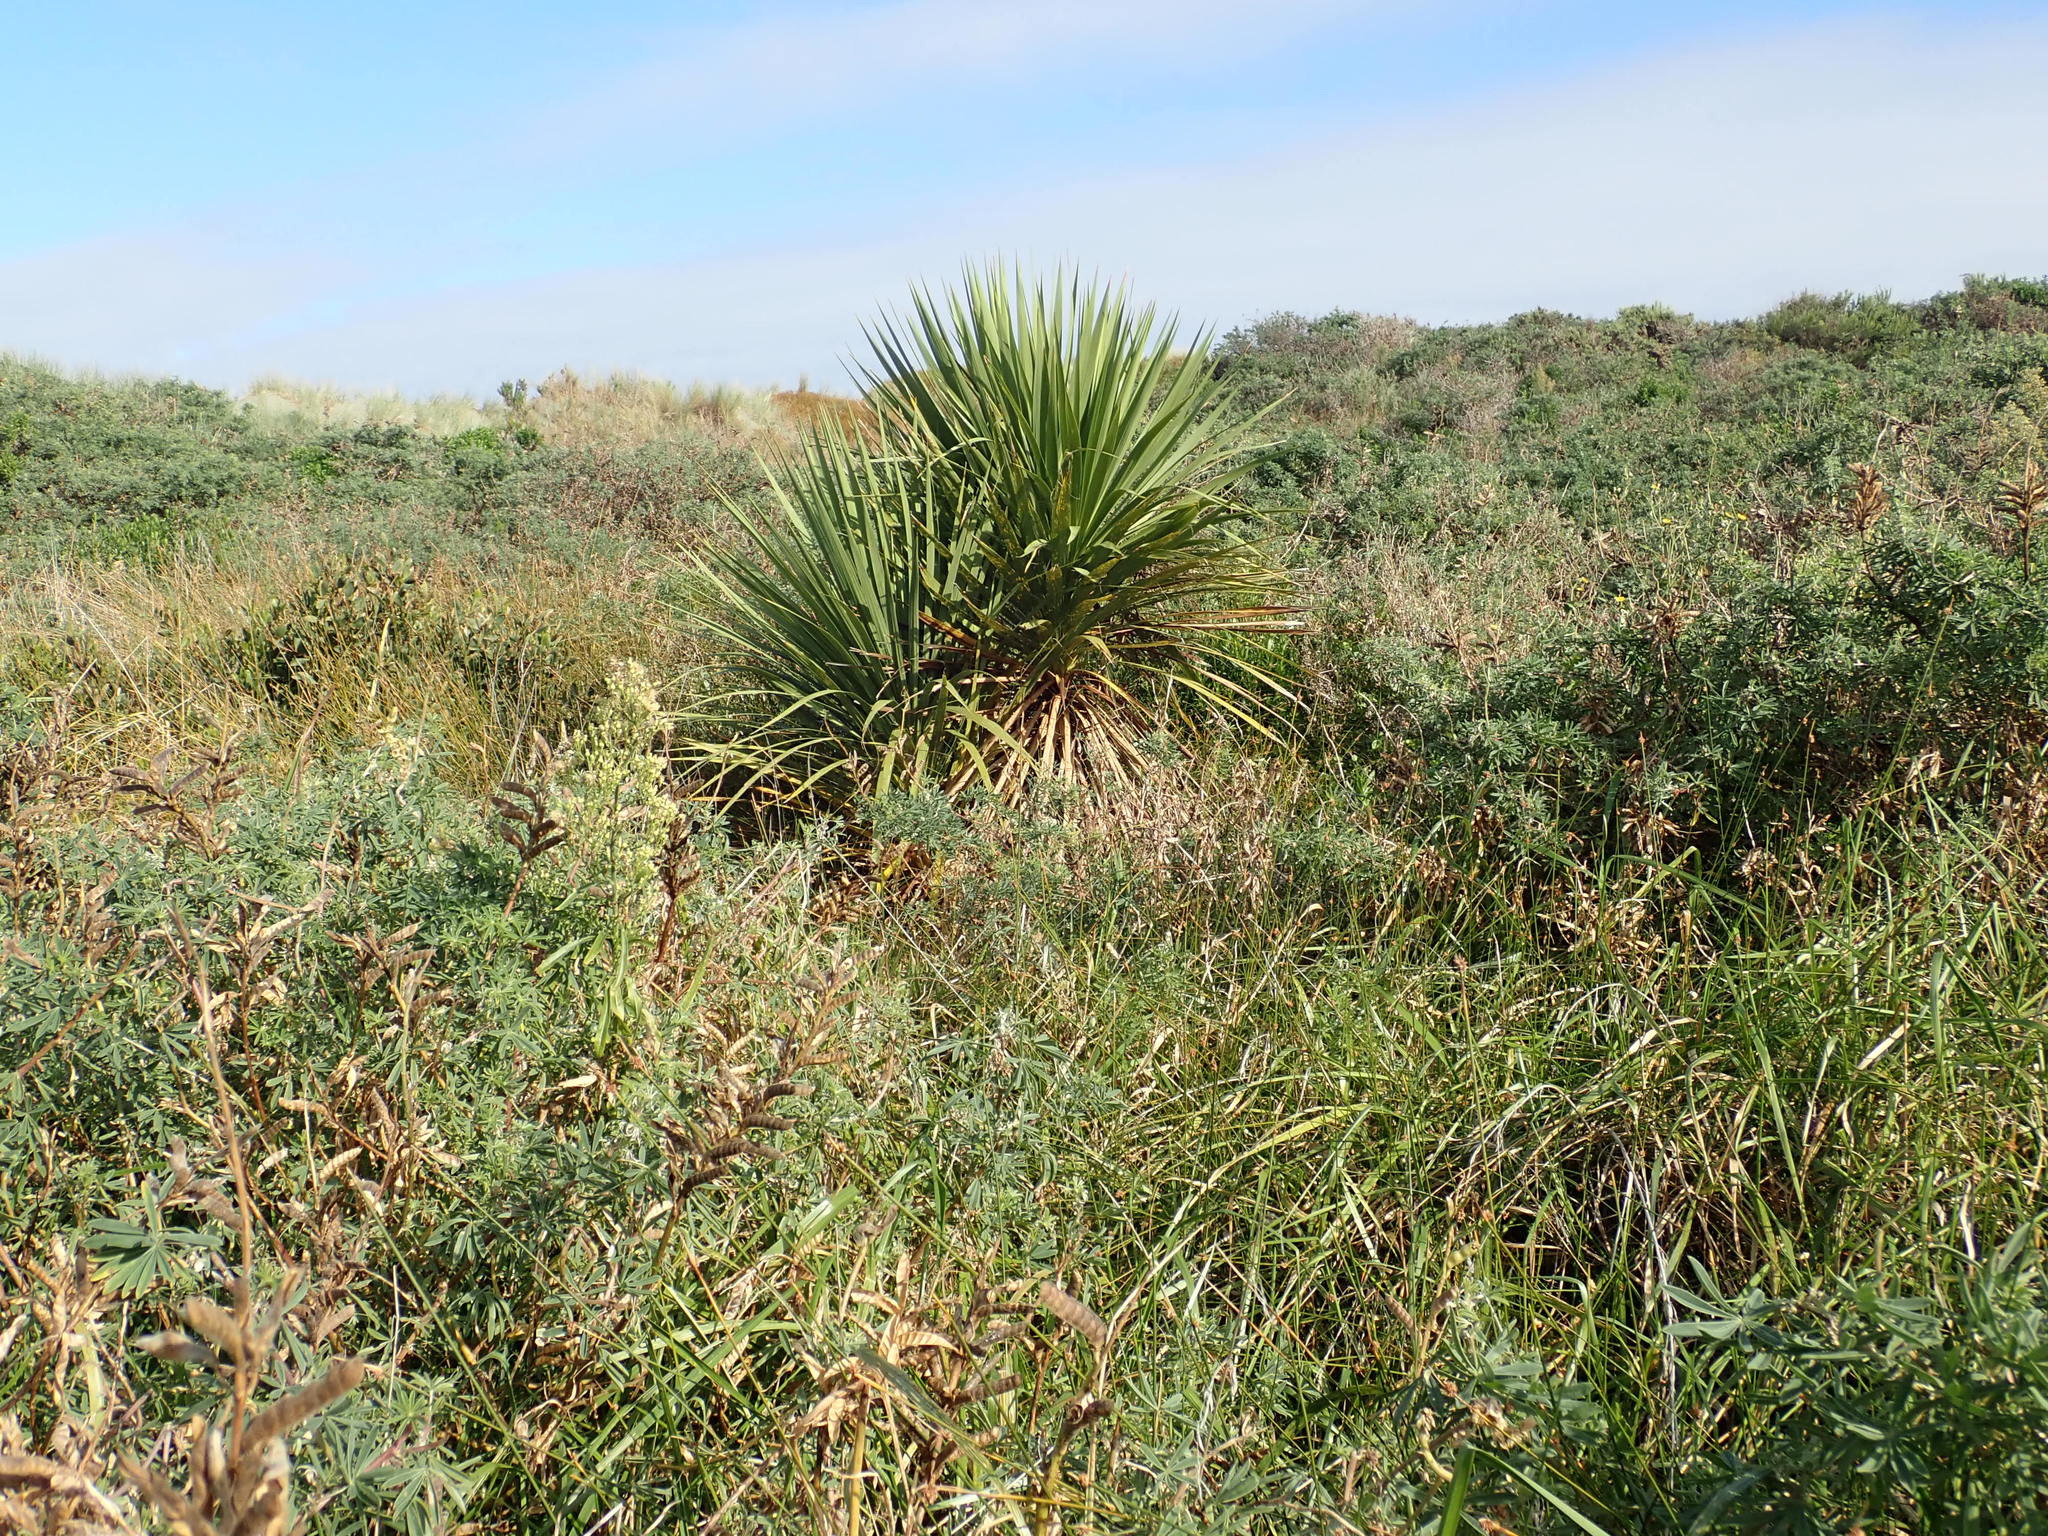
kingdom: Plantae
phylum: Tracheophyta
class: Liliopsida
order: Asparagales
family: Asparagaceae
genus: Cordyline
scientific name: Cordyline australis
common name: Cabbage-palm
